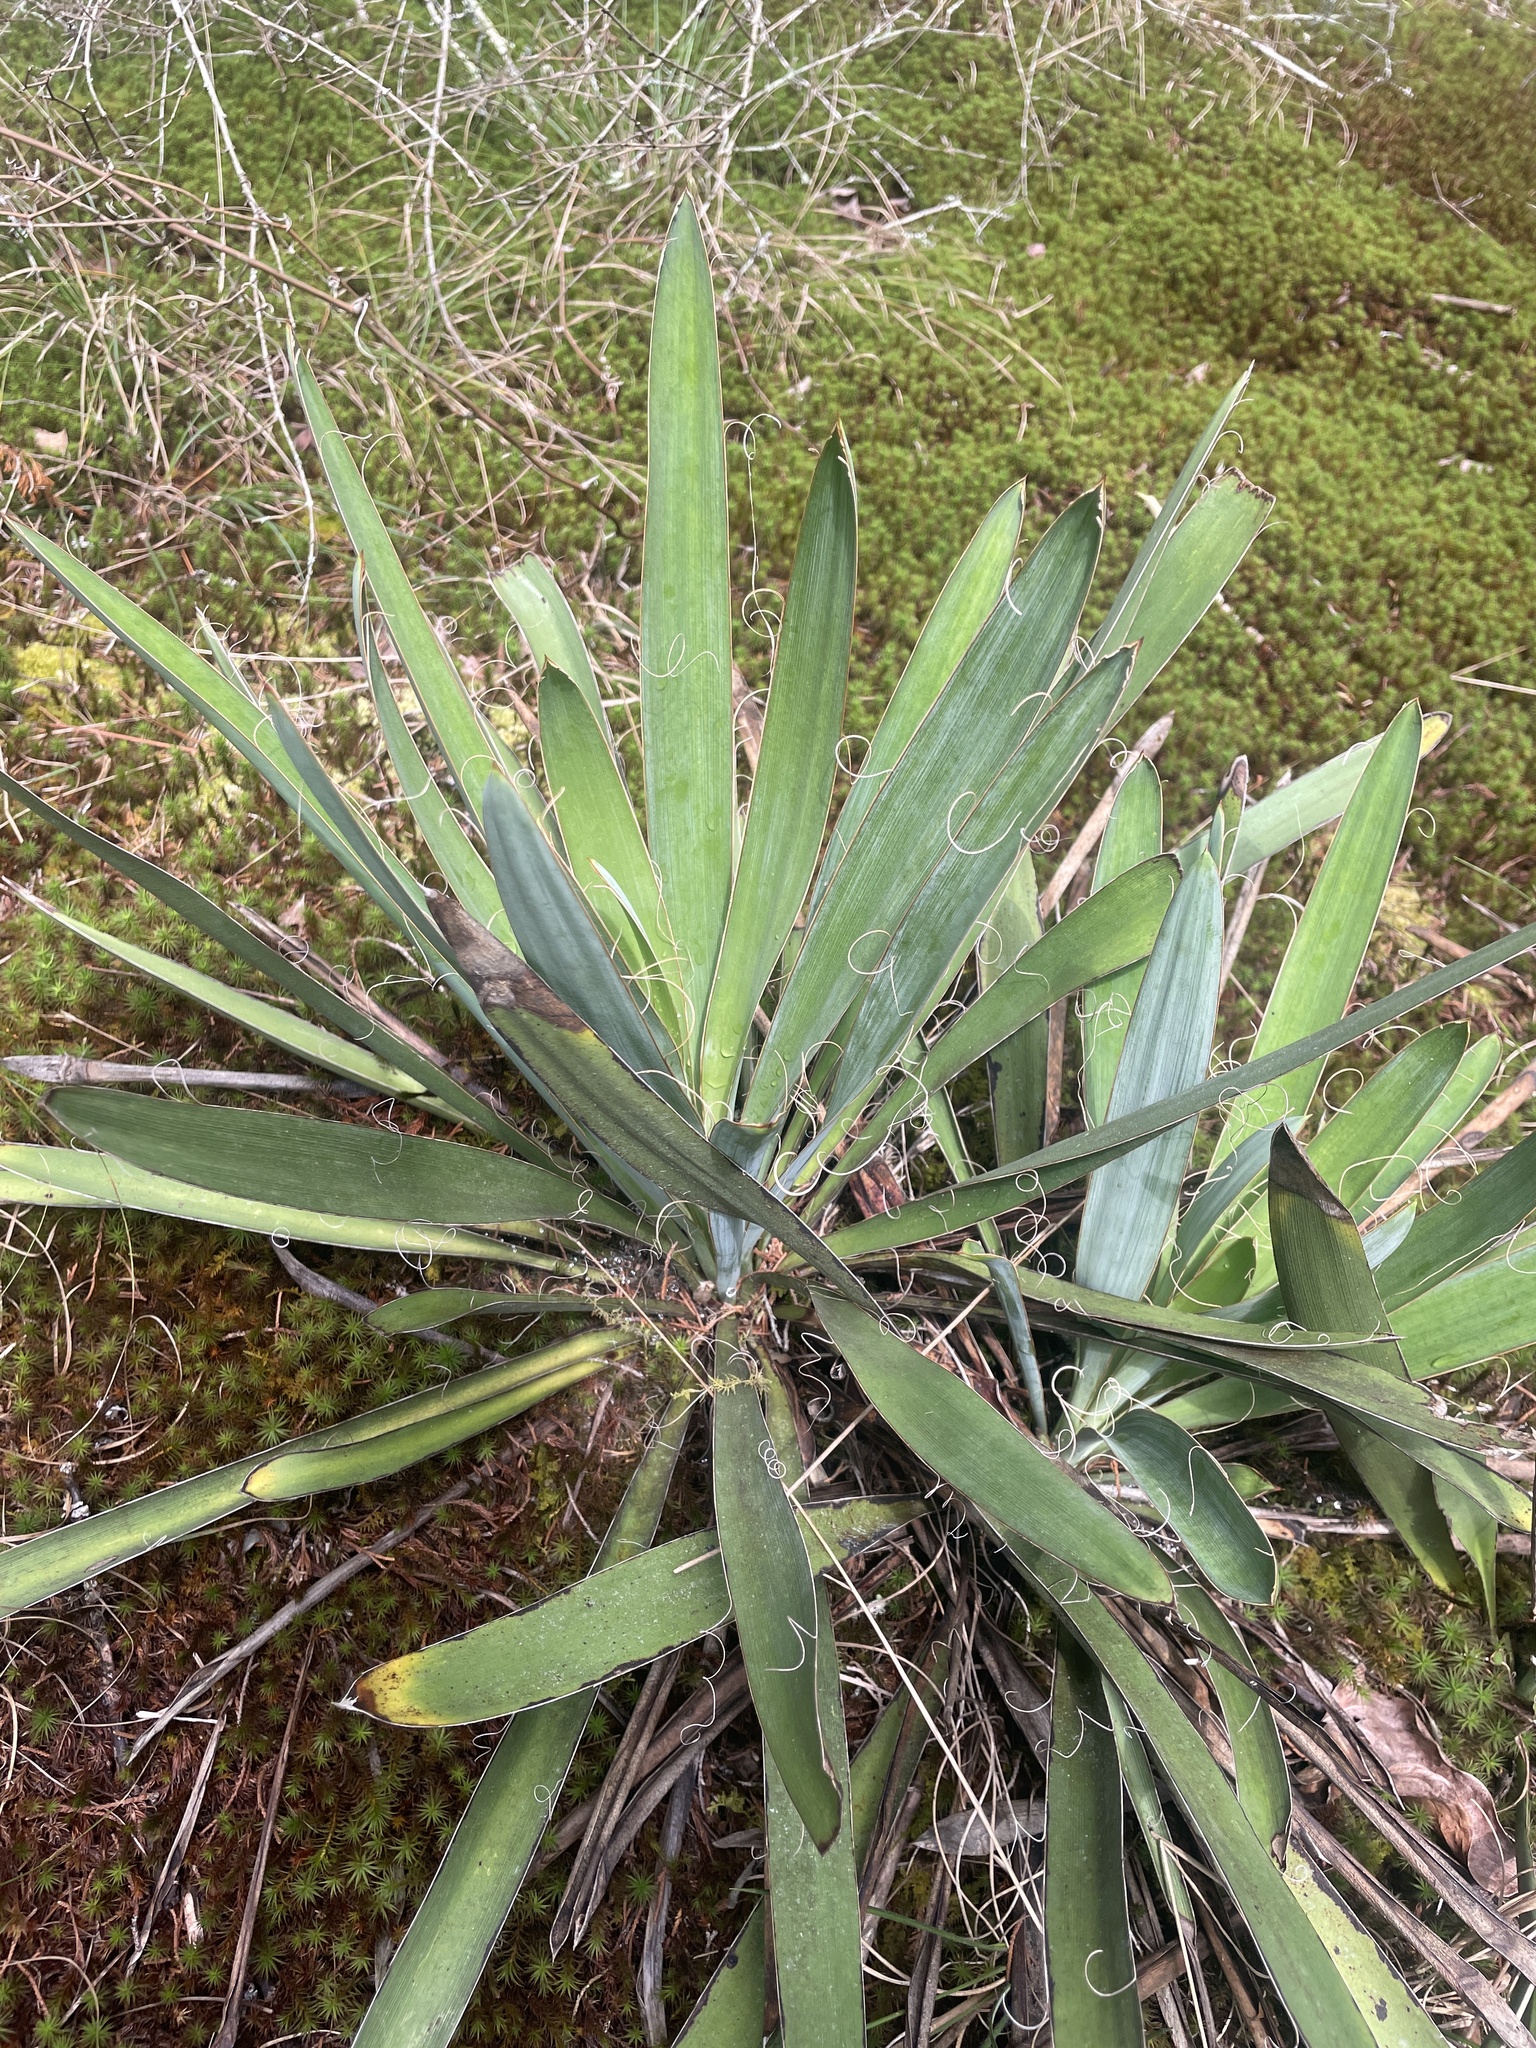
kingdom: Plantae
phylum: Tracheophyta
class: Liliopsida
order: Asparagales
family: Asparagaceae
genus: Yucca
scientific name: Yucca filamentosa
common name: Adam's-needle
